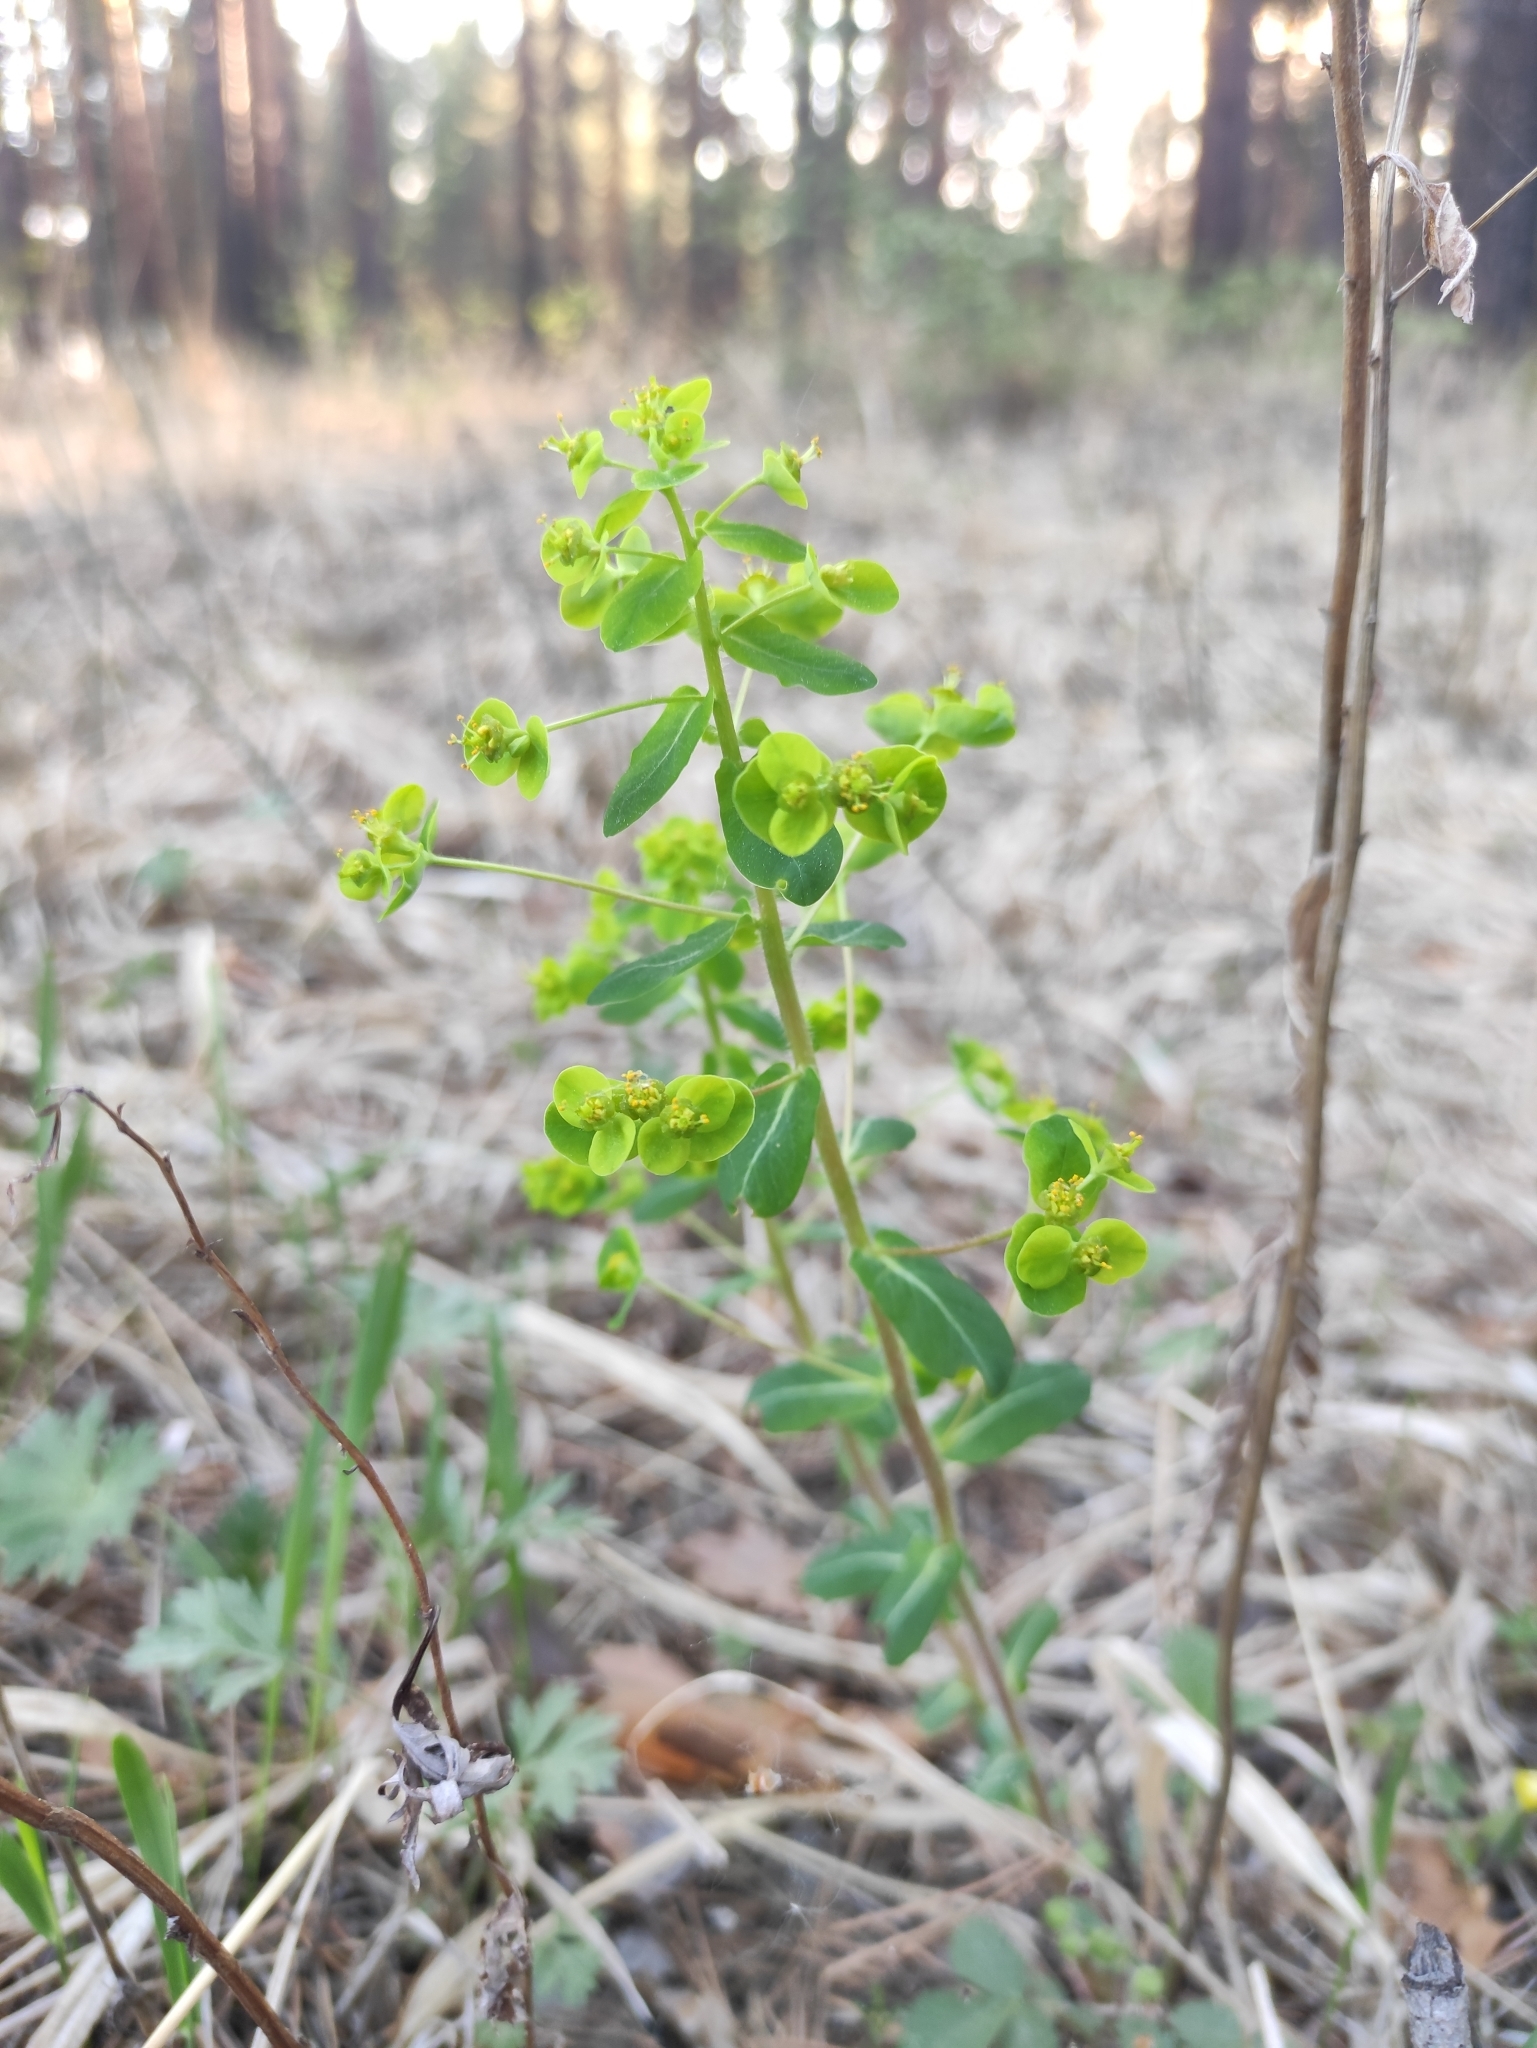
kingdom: Plantae
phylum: Tracheophyta
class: Magnoliopsida
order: Malpighiales
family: Euphorbiaceae
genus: Euphorbia
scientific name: Euphorbia jenisseiensis
